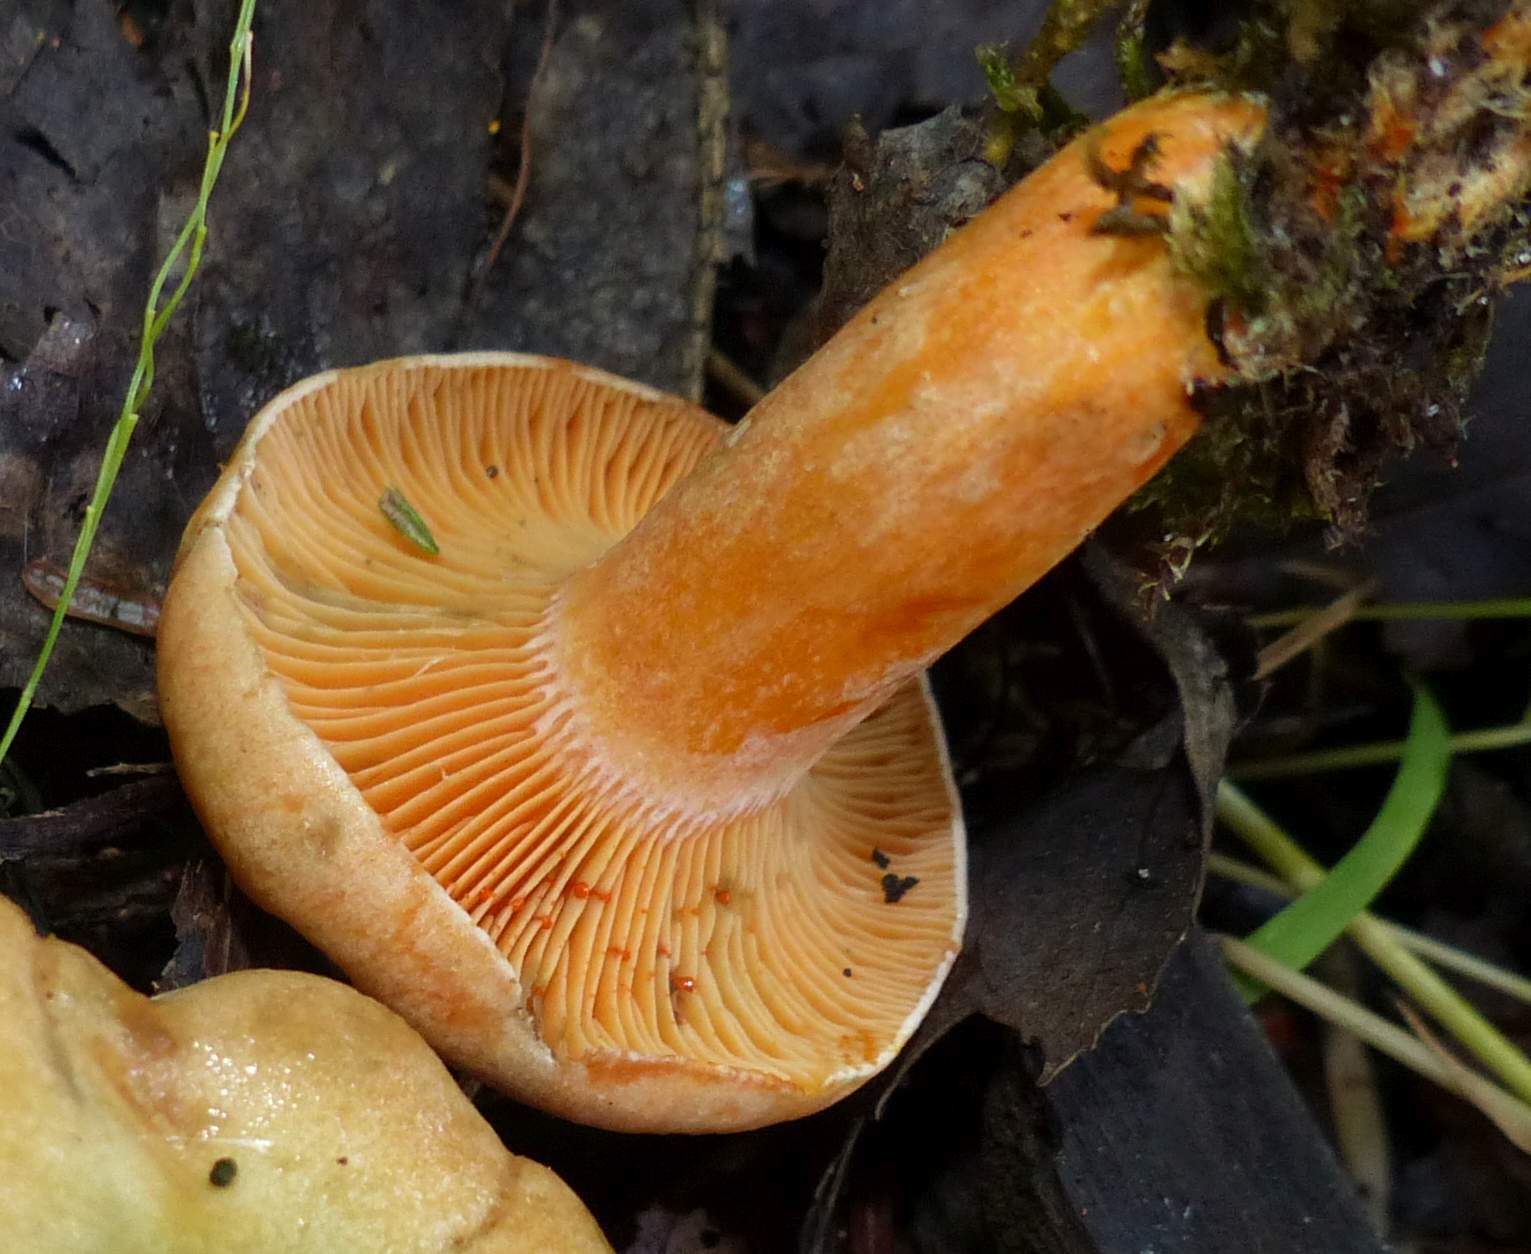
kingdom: Fungi
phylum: Basidiomycota
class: Agaricomycetes
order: Russulales
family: Russulaceae
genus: Lactarius
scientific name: Lactarius deterrimus
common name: False saffron milkcap
